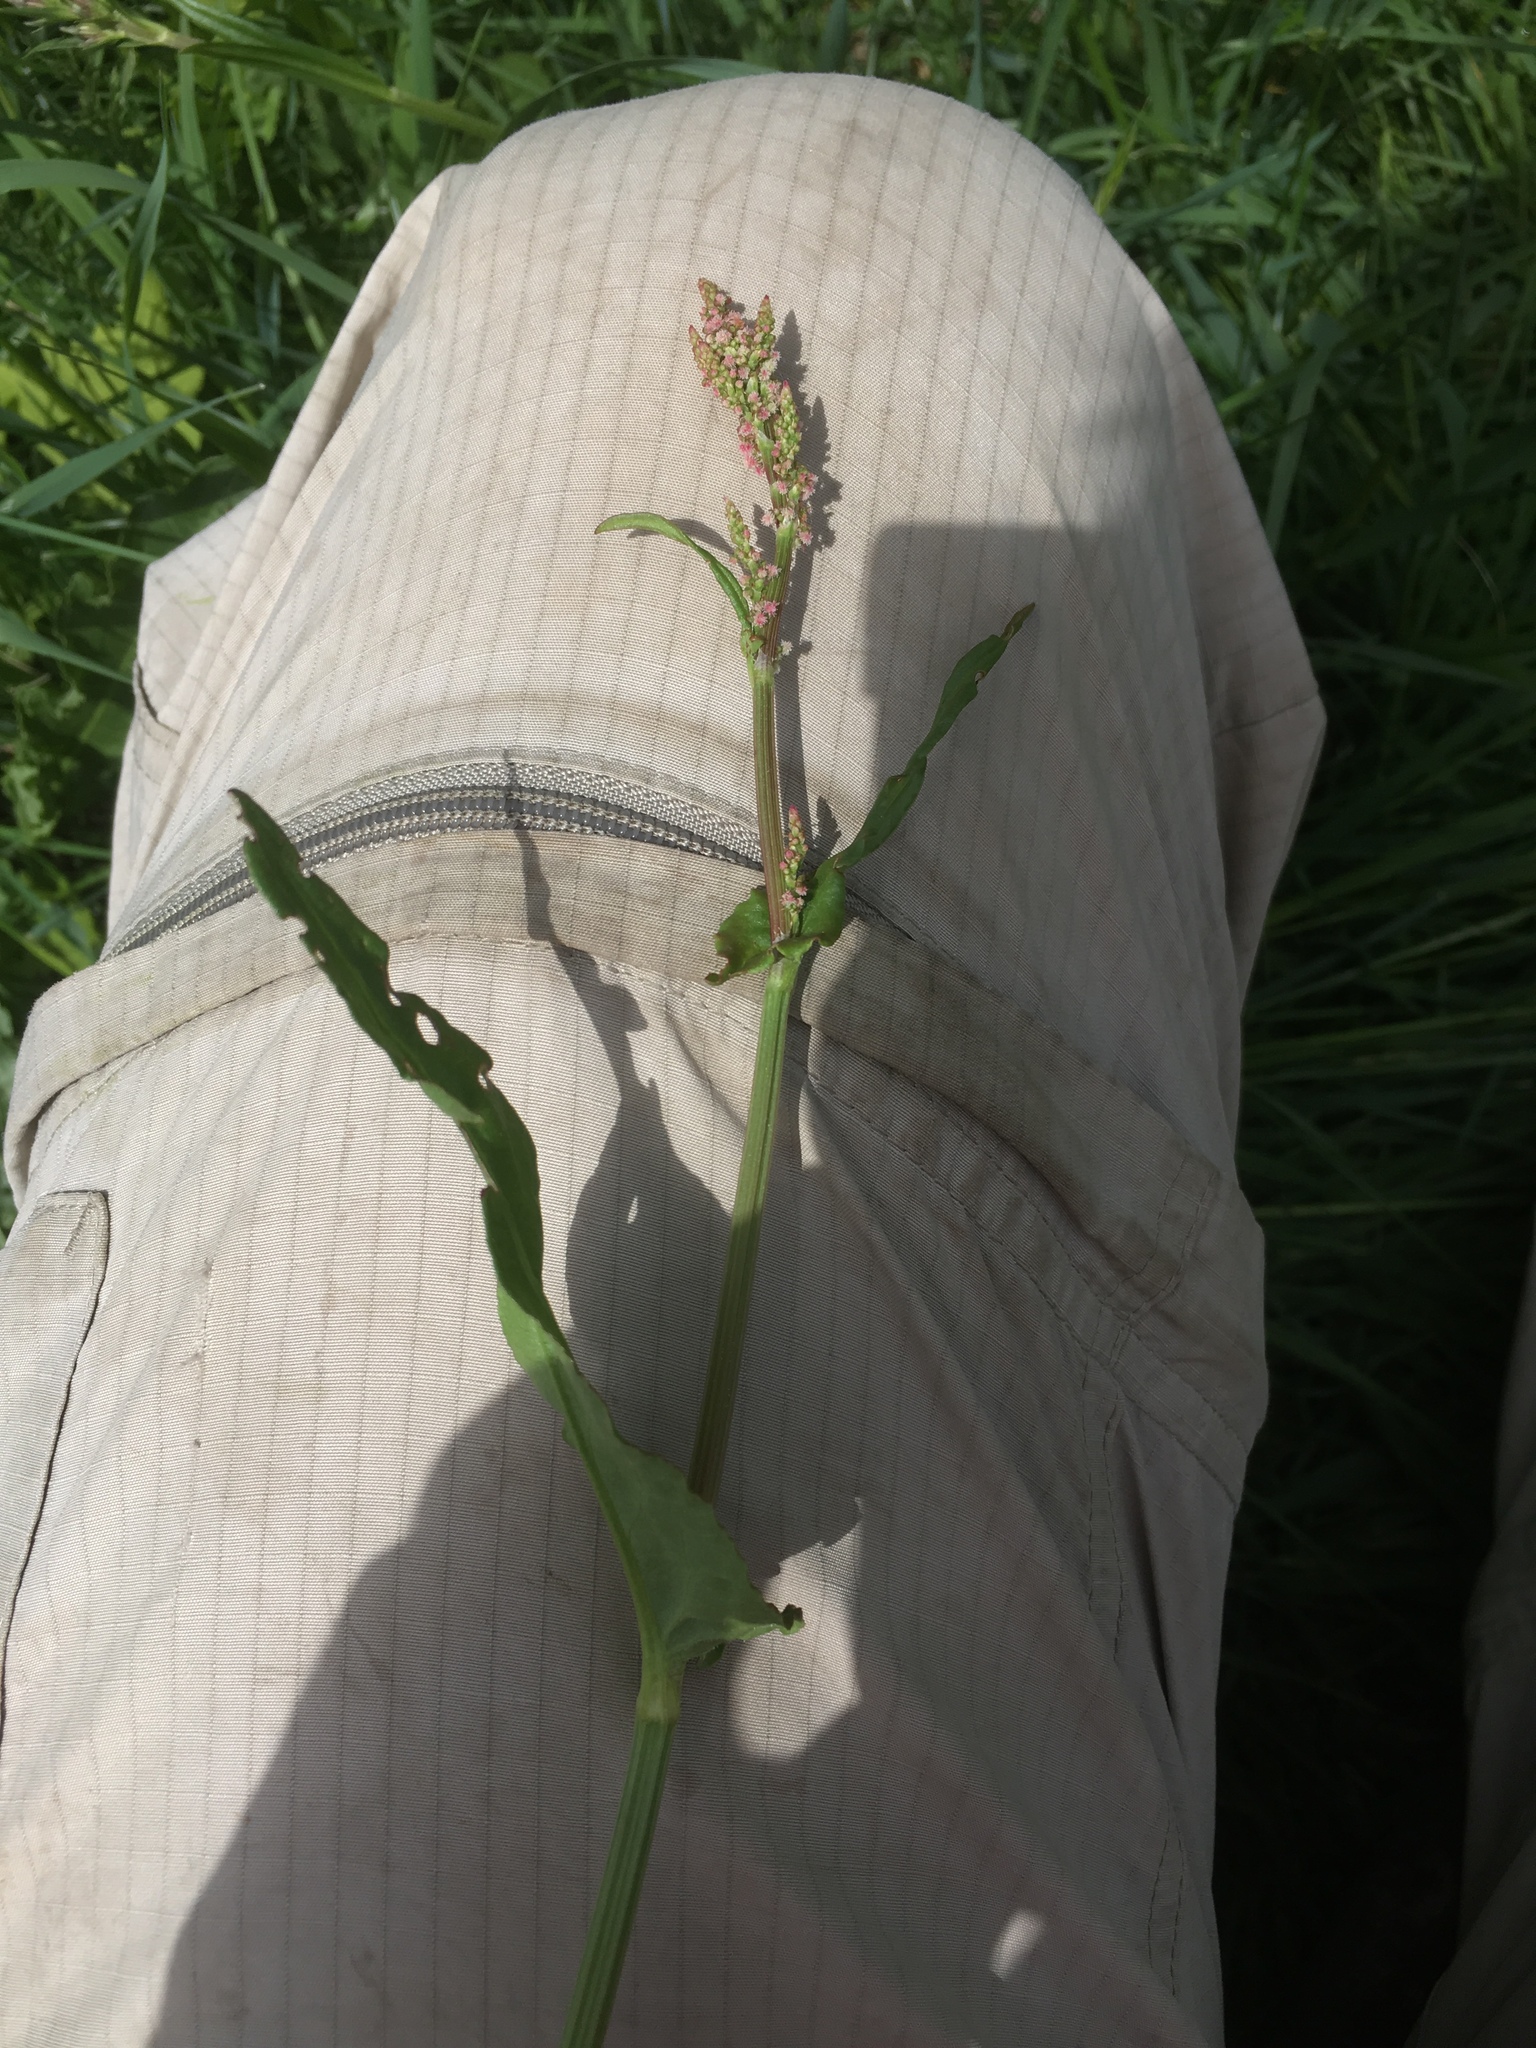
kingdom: Plantae
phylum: Tracheophyta
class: Magnoliopsida
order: Caryophyllales
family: Polygonaceae
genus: Rumex
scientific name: Rumex acetosa
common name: Garden sorrel
